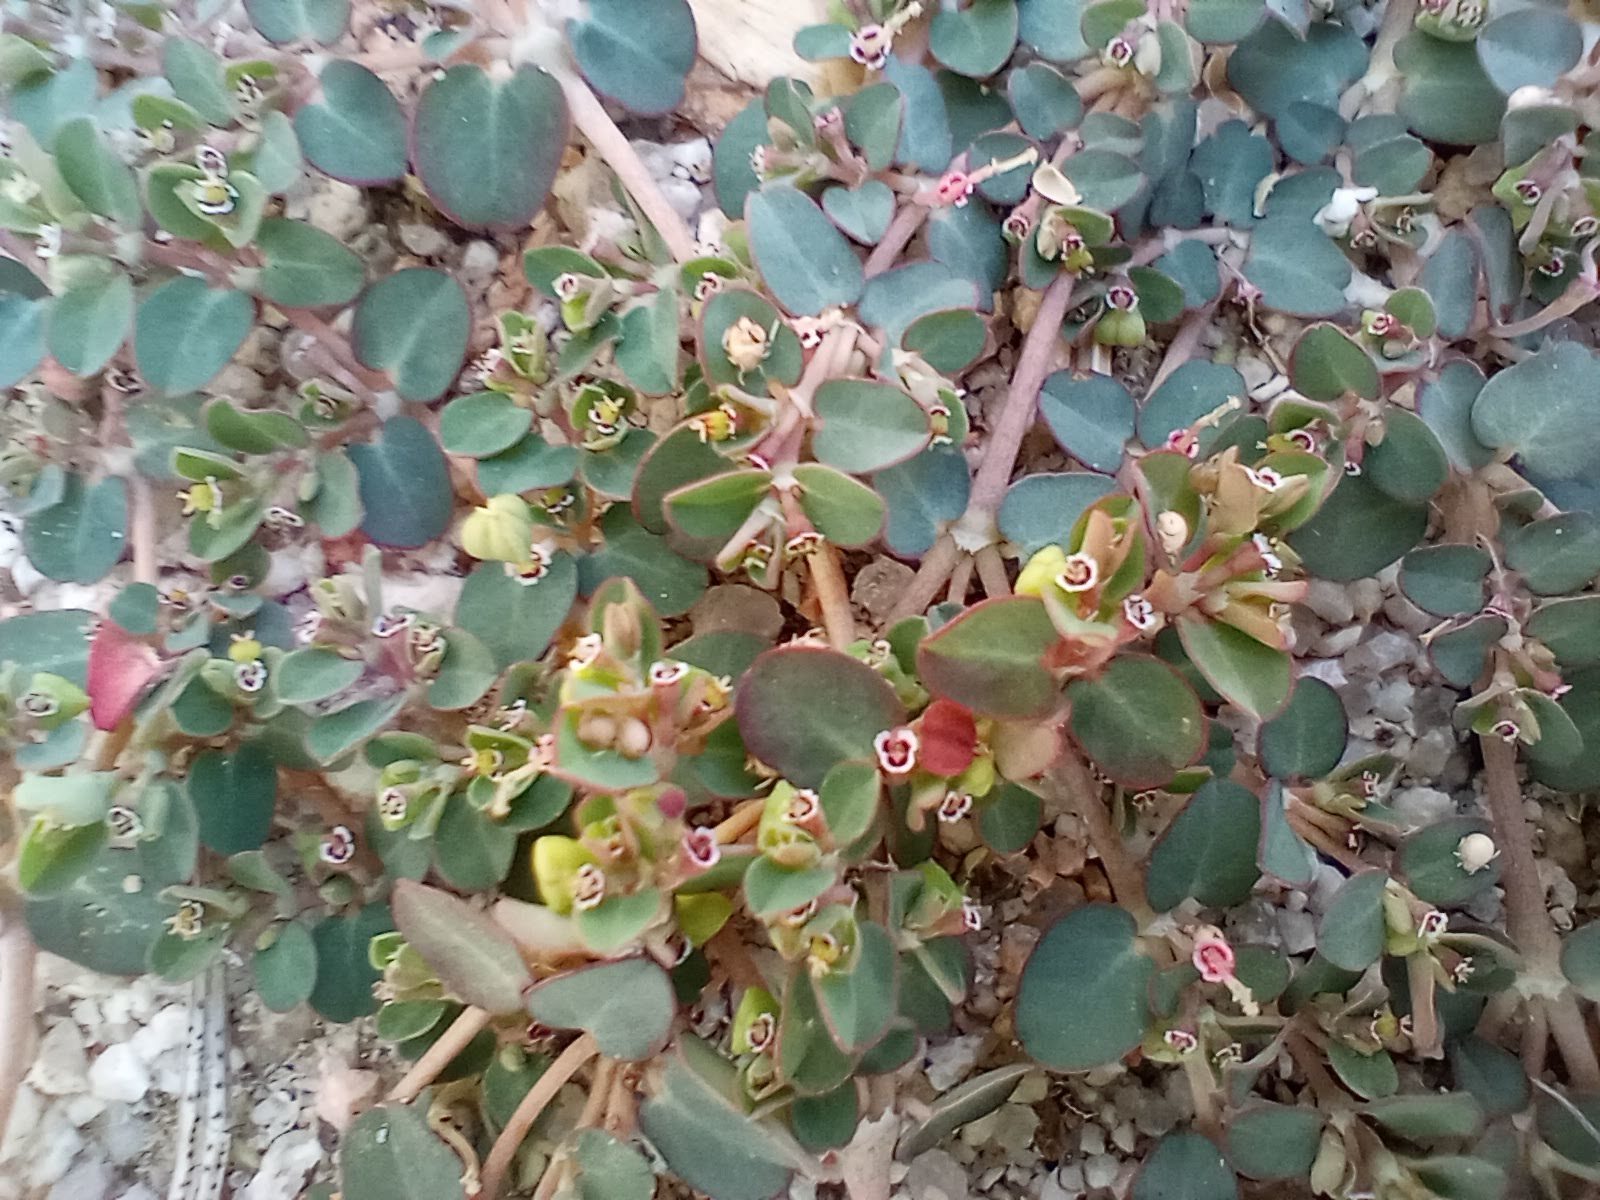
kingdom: Plantae
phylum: Tracheophyta
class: Magnoliopsida
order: Malpighiales
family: Euphorbiaceae
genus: Euphorbia
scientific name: Euphorbia serpens
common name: Matted sandmat
